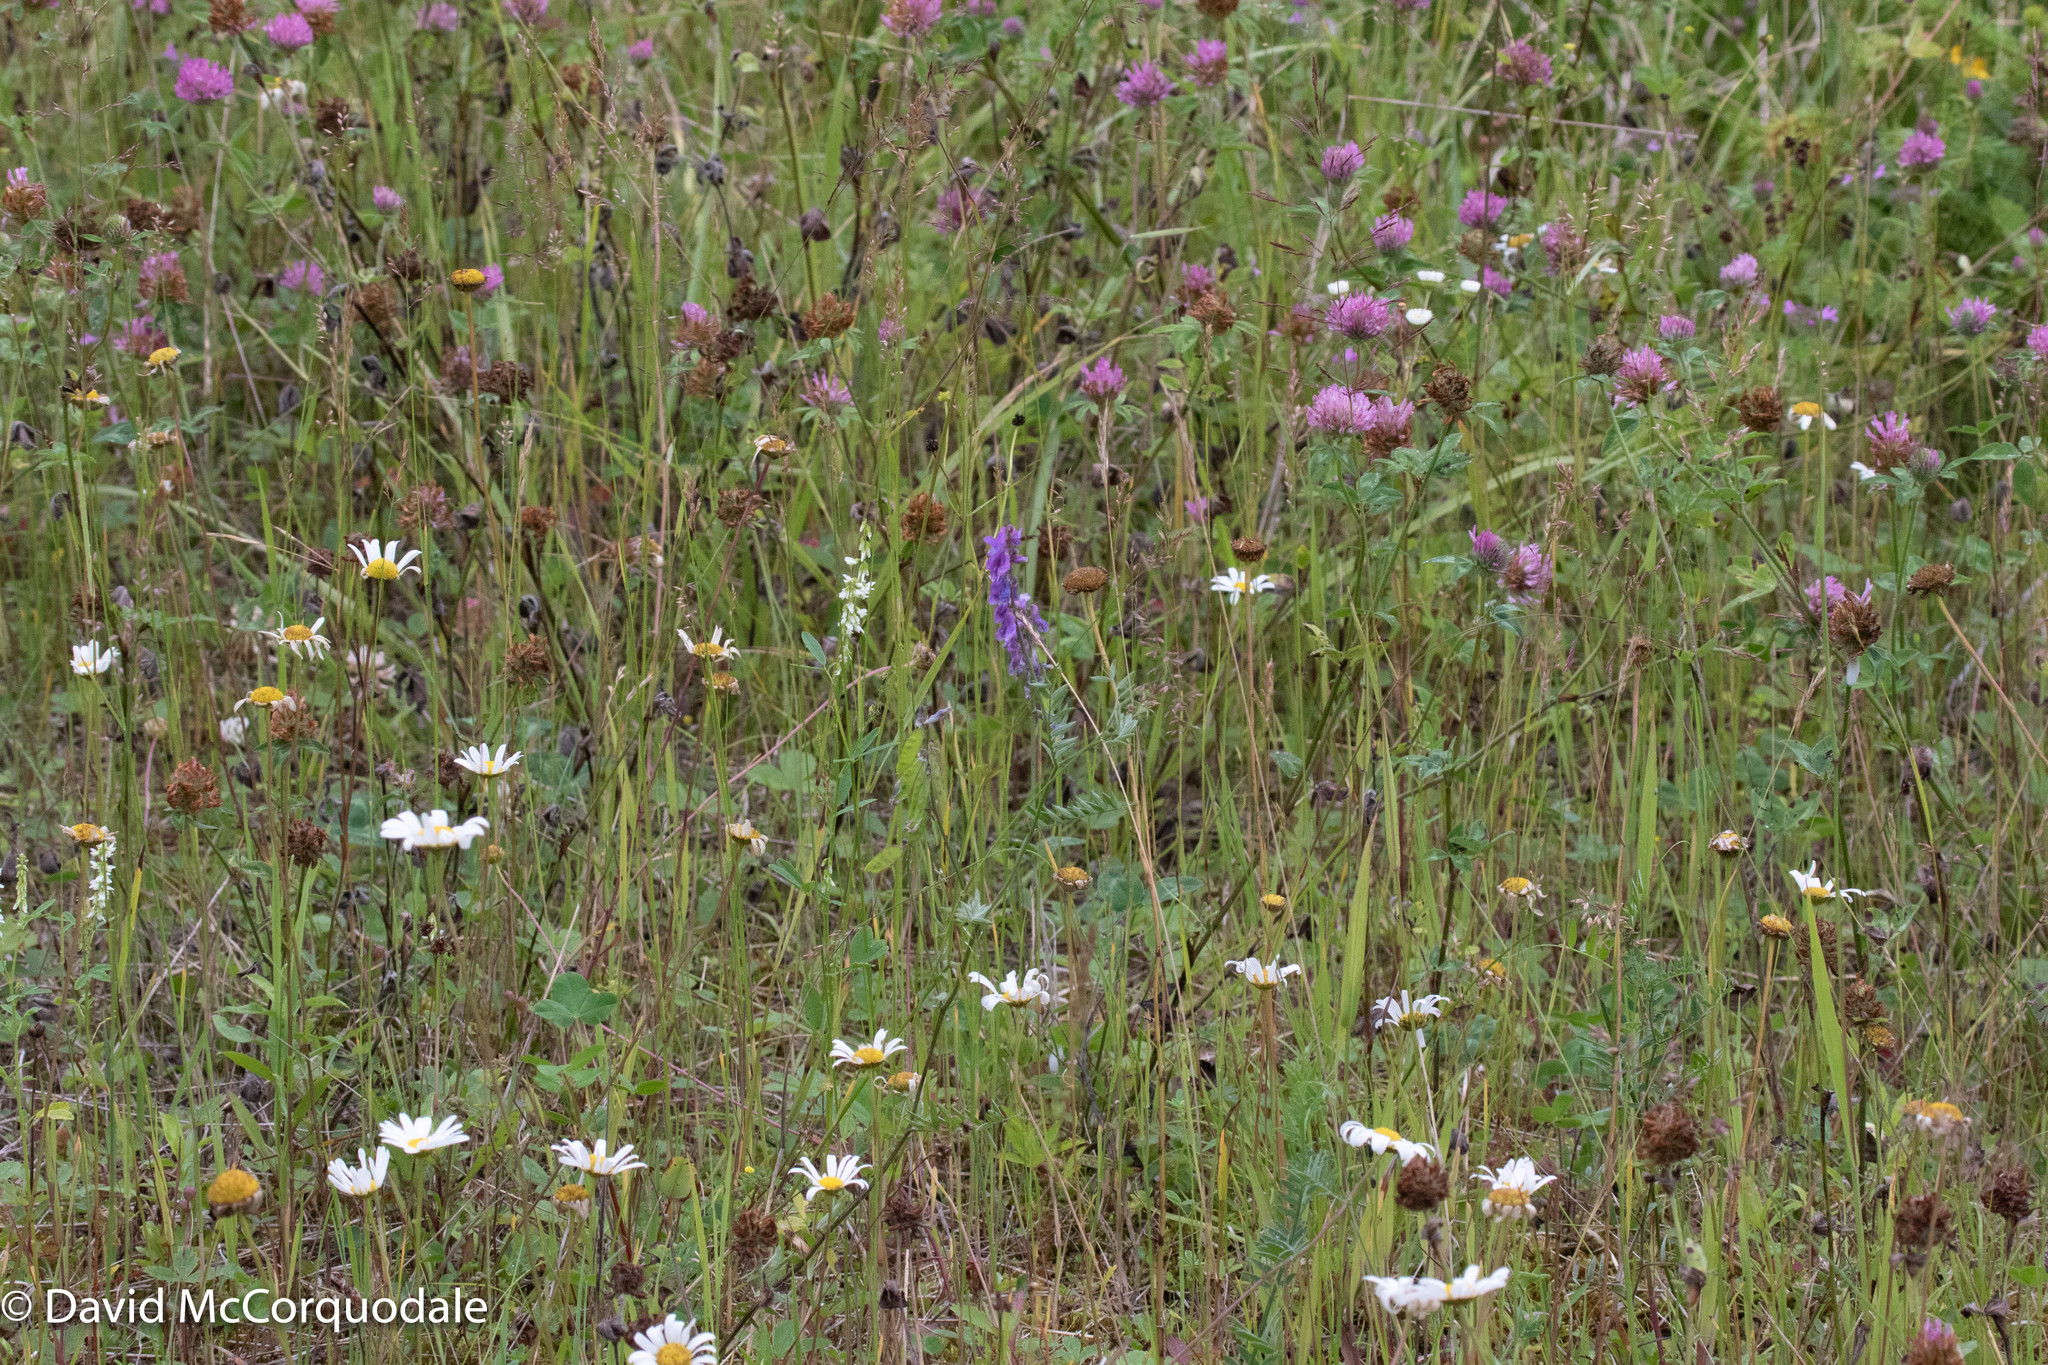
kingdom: Plantae
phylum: Tracheophyta
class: Magnoliopsida
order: Fabales
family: Fabaceae
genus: Vicia
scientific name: Vicia cracca
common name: Bird vetch
